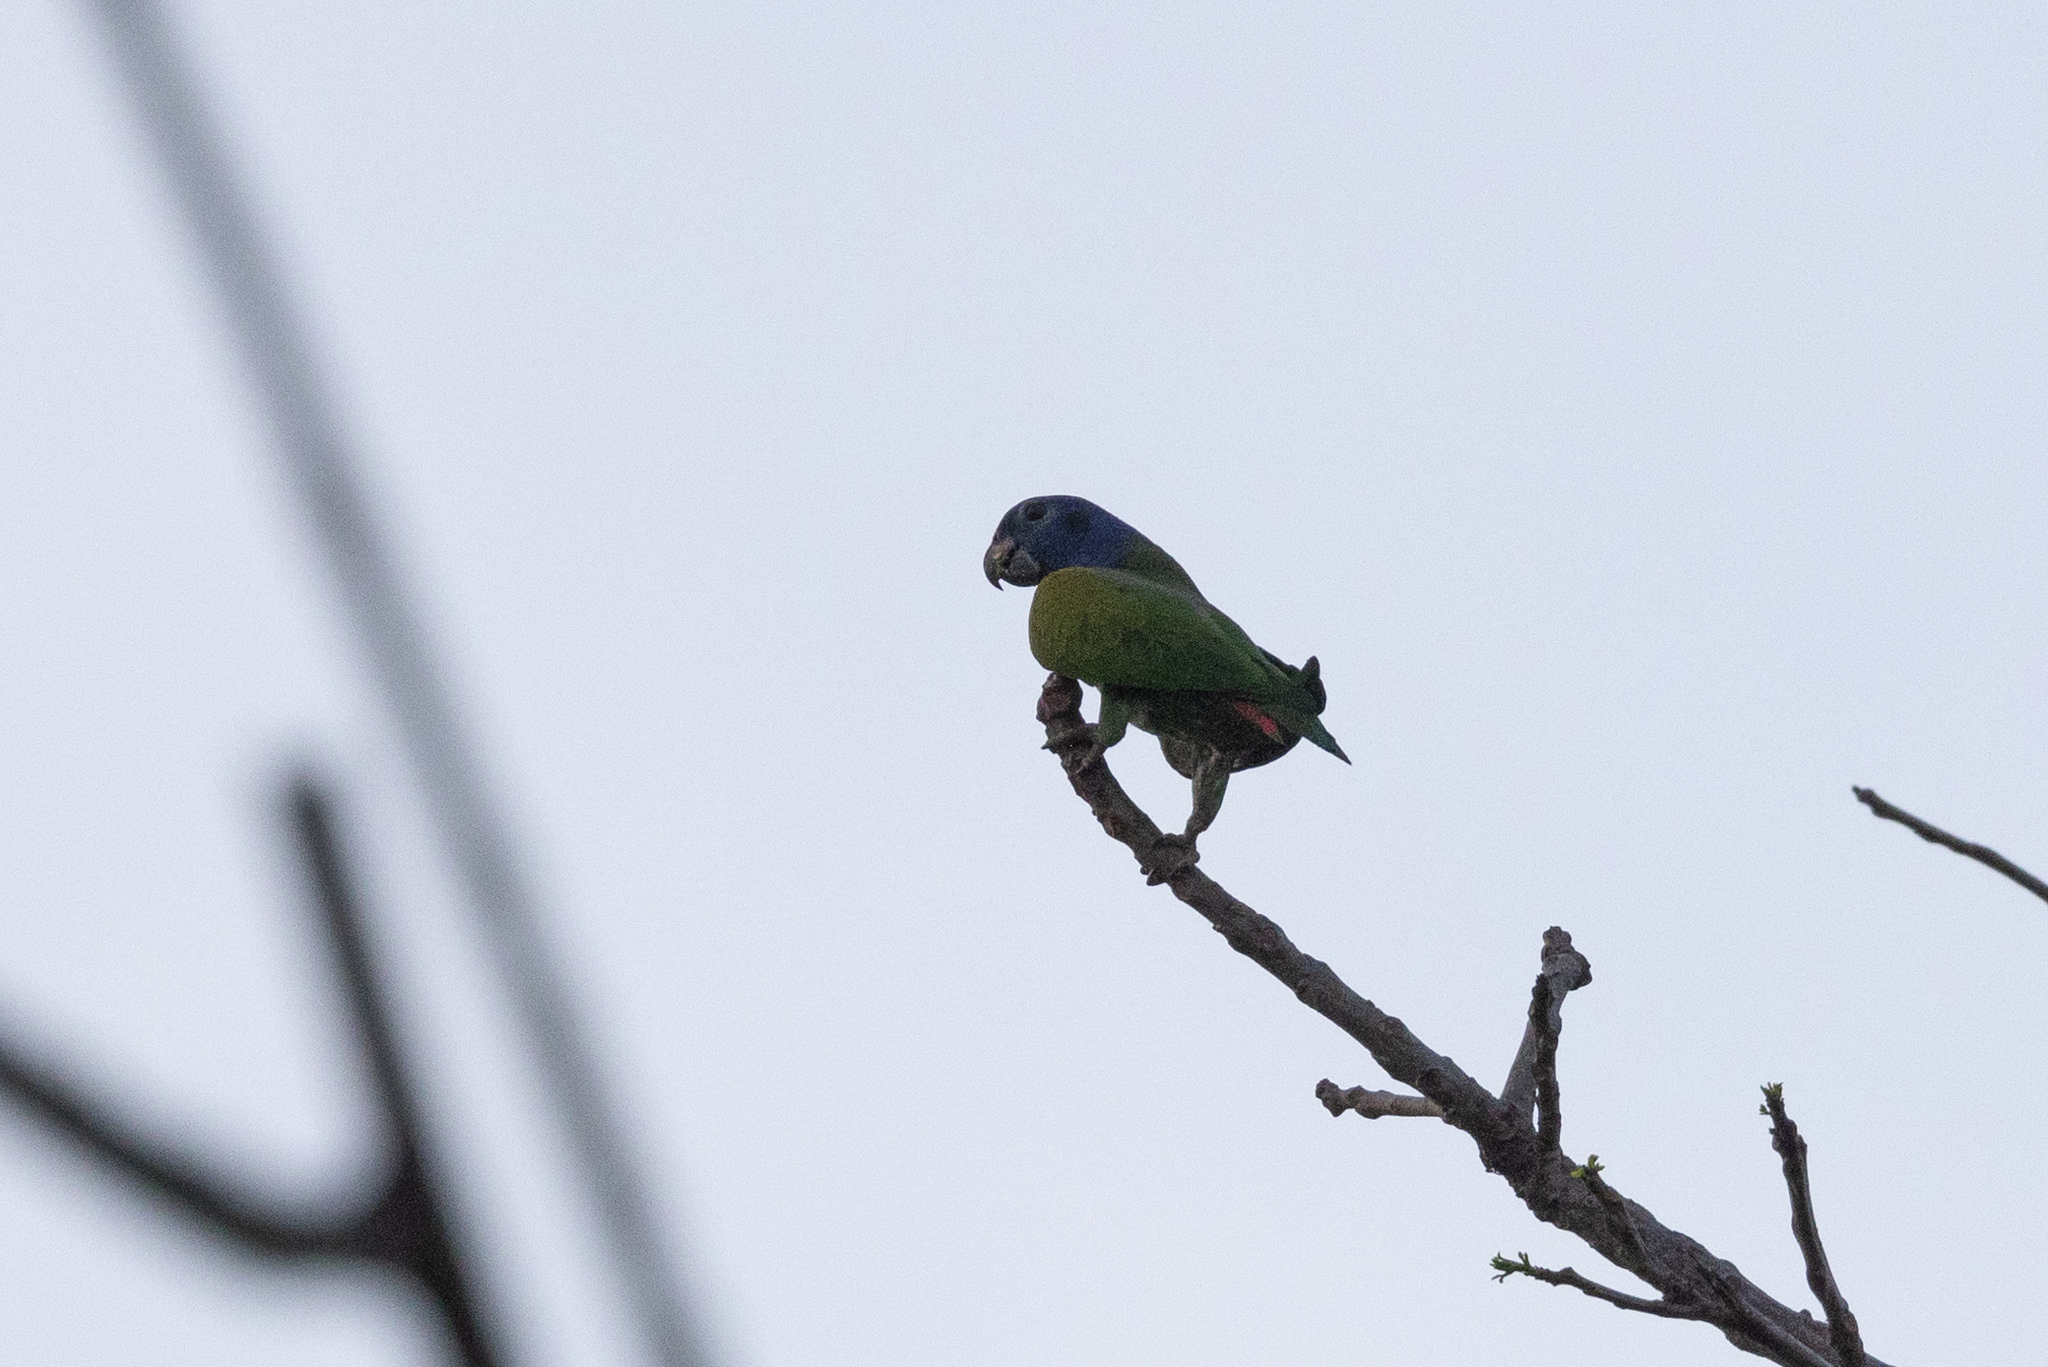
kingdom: Animalia
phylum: Chordata
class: Aves
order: Psittaciformes
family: Psittacidae
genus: Pionus
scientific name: Pionus menstruus
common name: Blue-headed parrot
